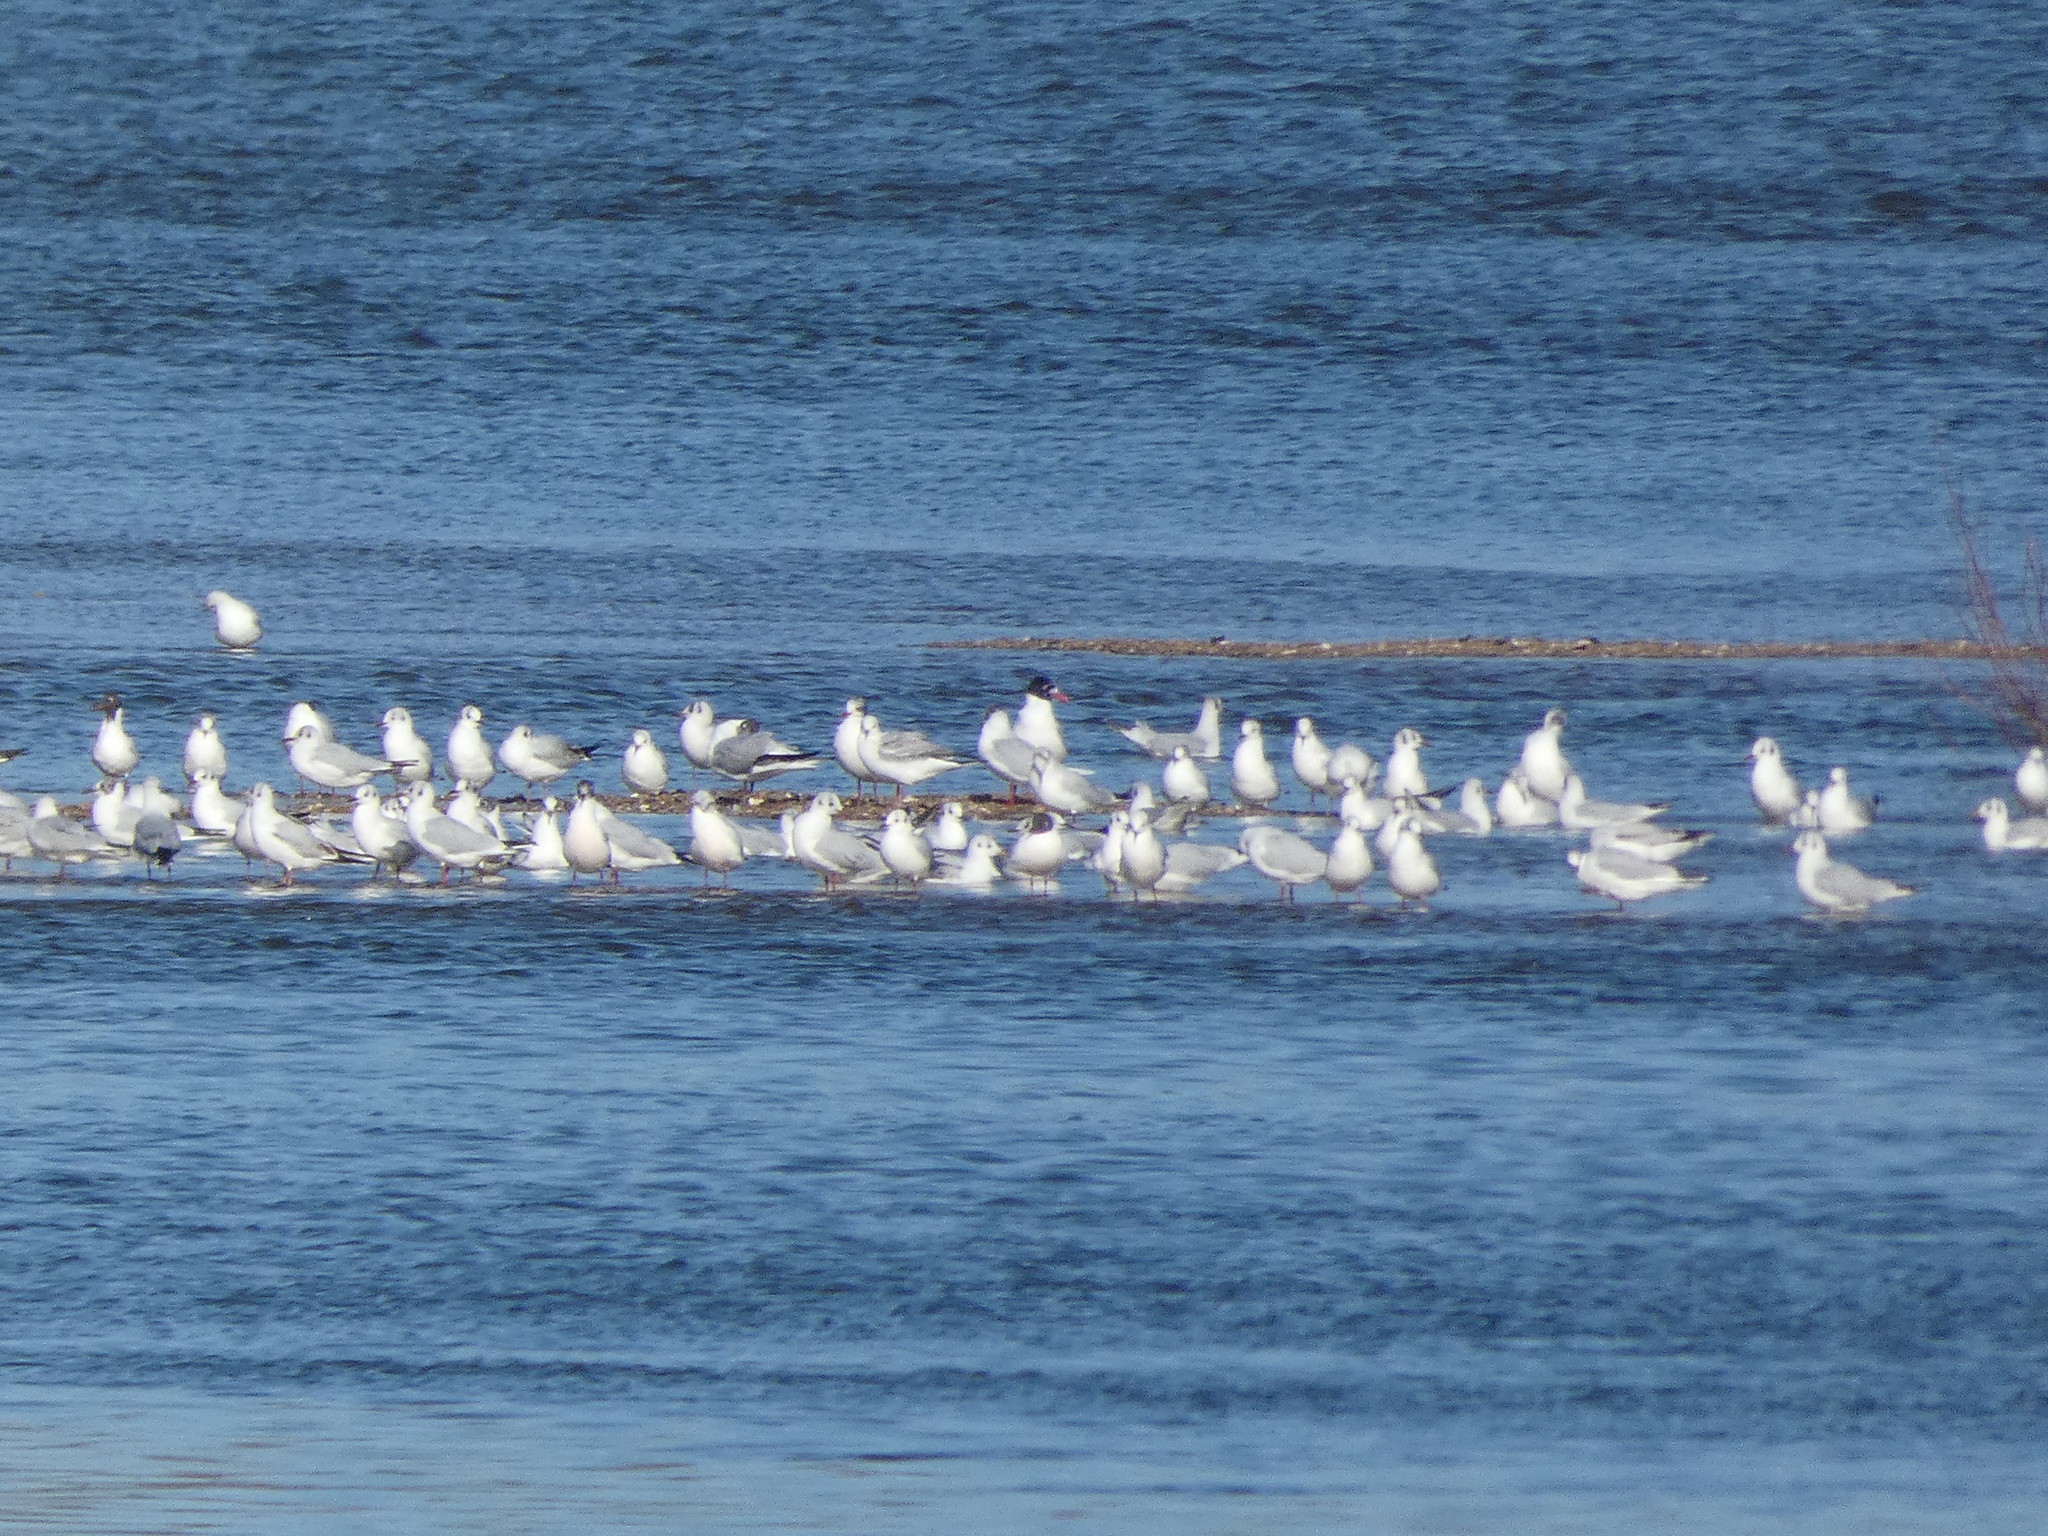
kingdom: Animalia
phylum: Chordata
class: Aves
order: Charadriiformes
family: Laridae
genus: Ichthyaetus
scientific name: Ichthyaetus melanocephalus
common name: Mediterranean gull
